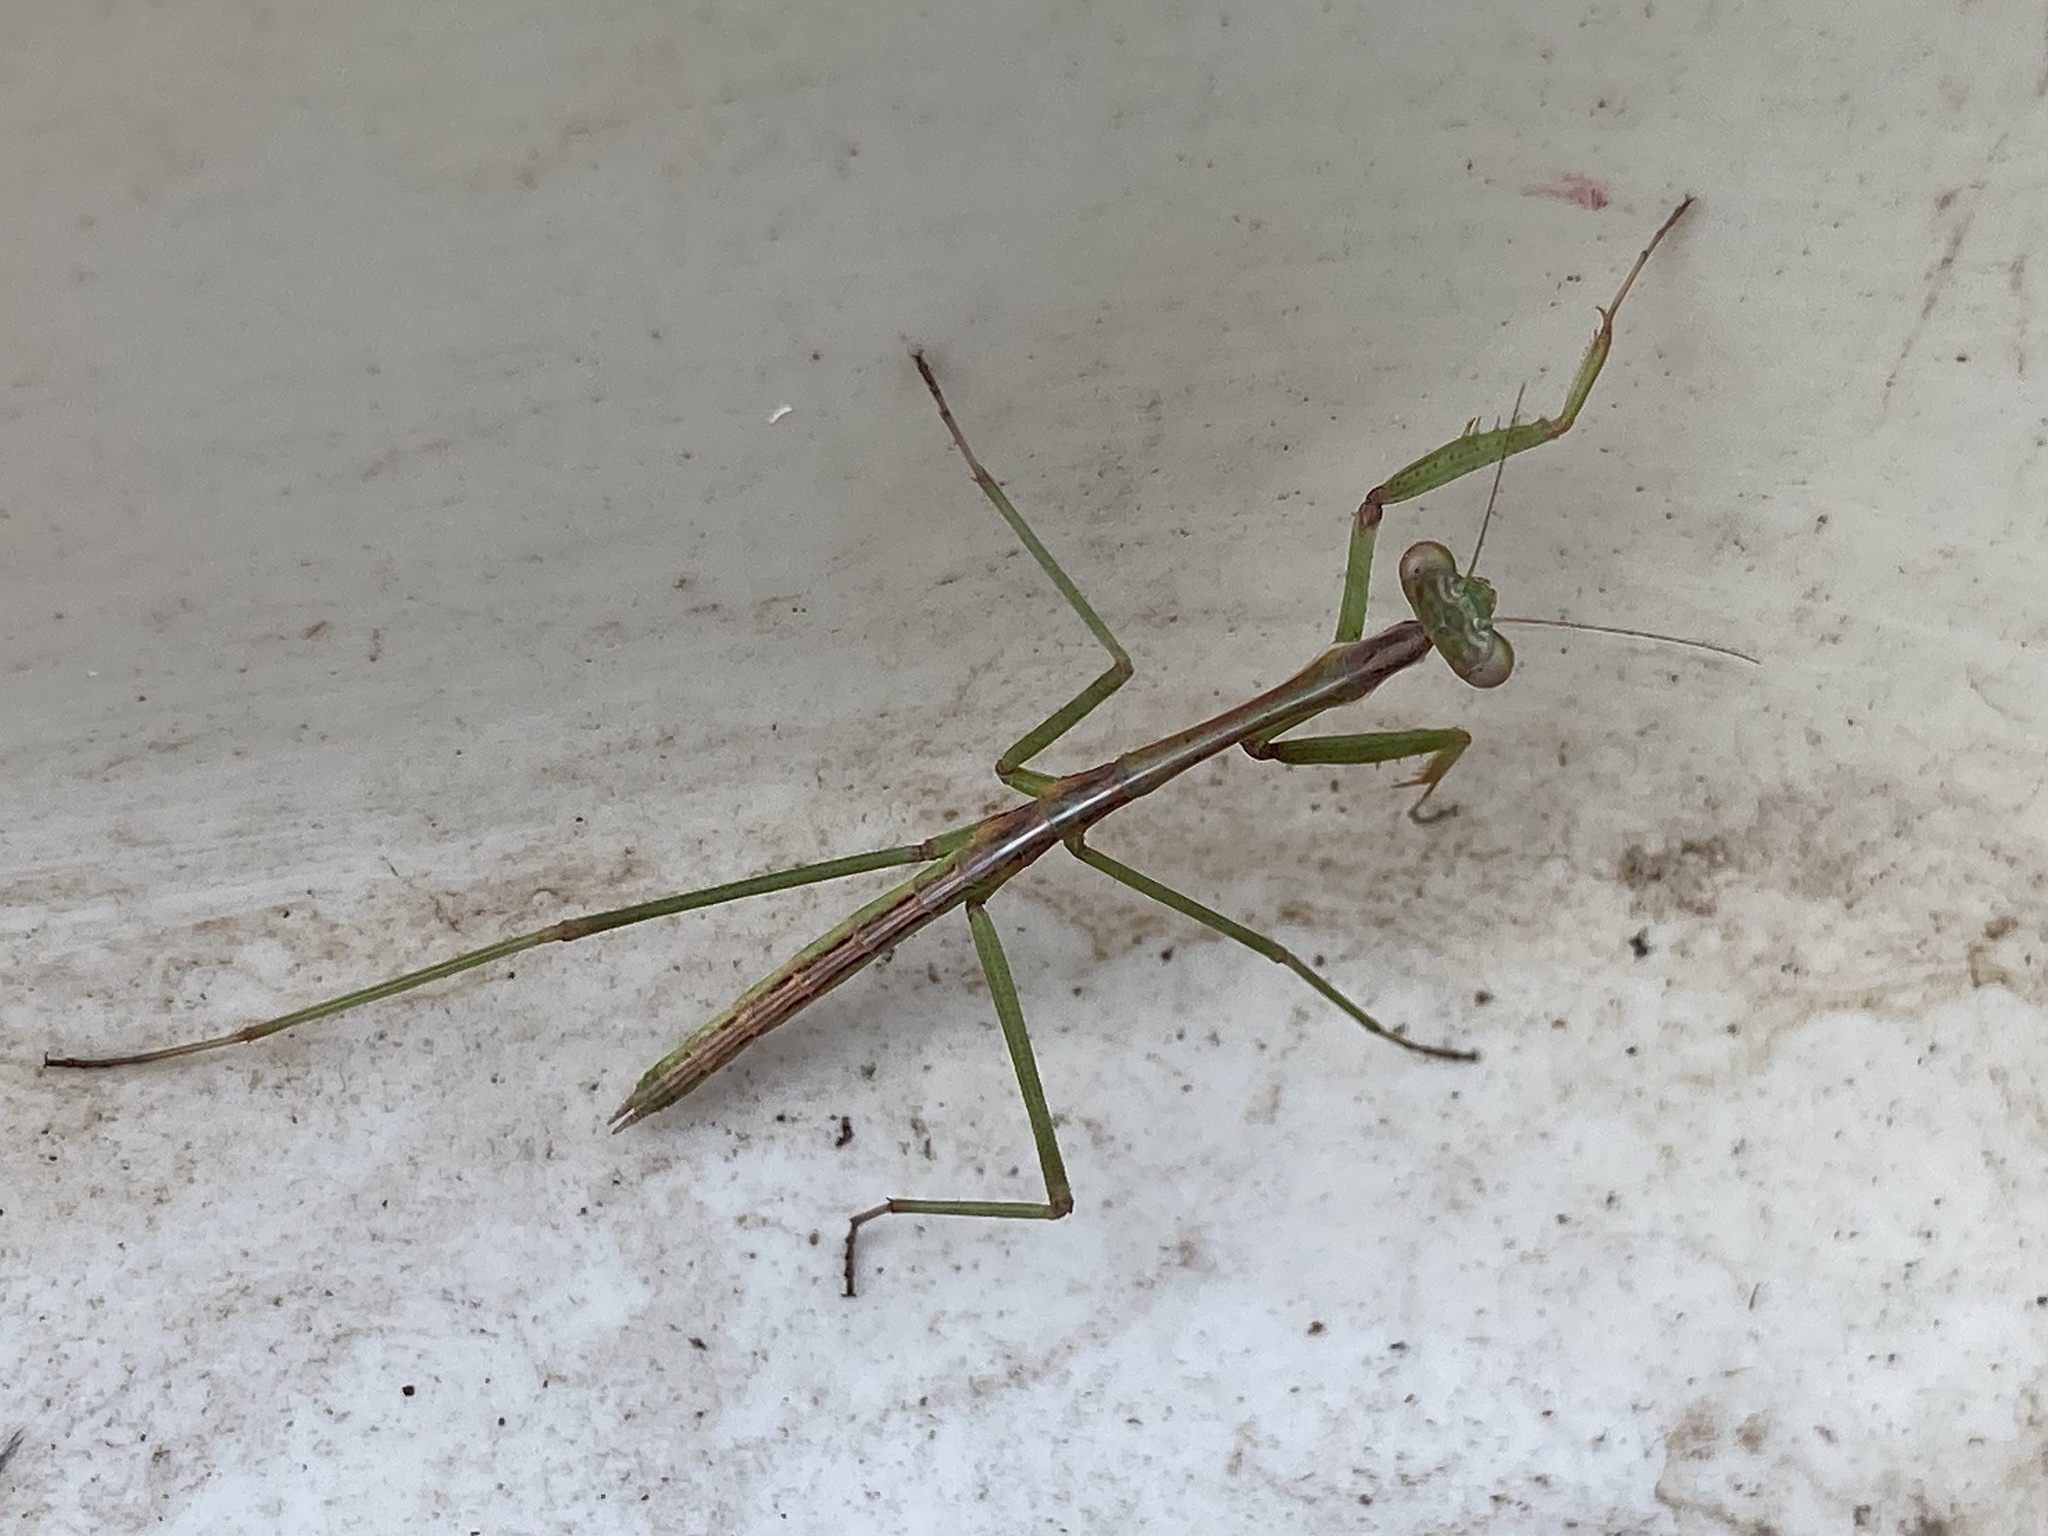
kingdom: Animalia
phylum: Arthropoda
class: Insecta
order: Mantodea
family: Mantidae
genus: Archimantis
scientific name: Archimantis latistyla
